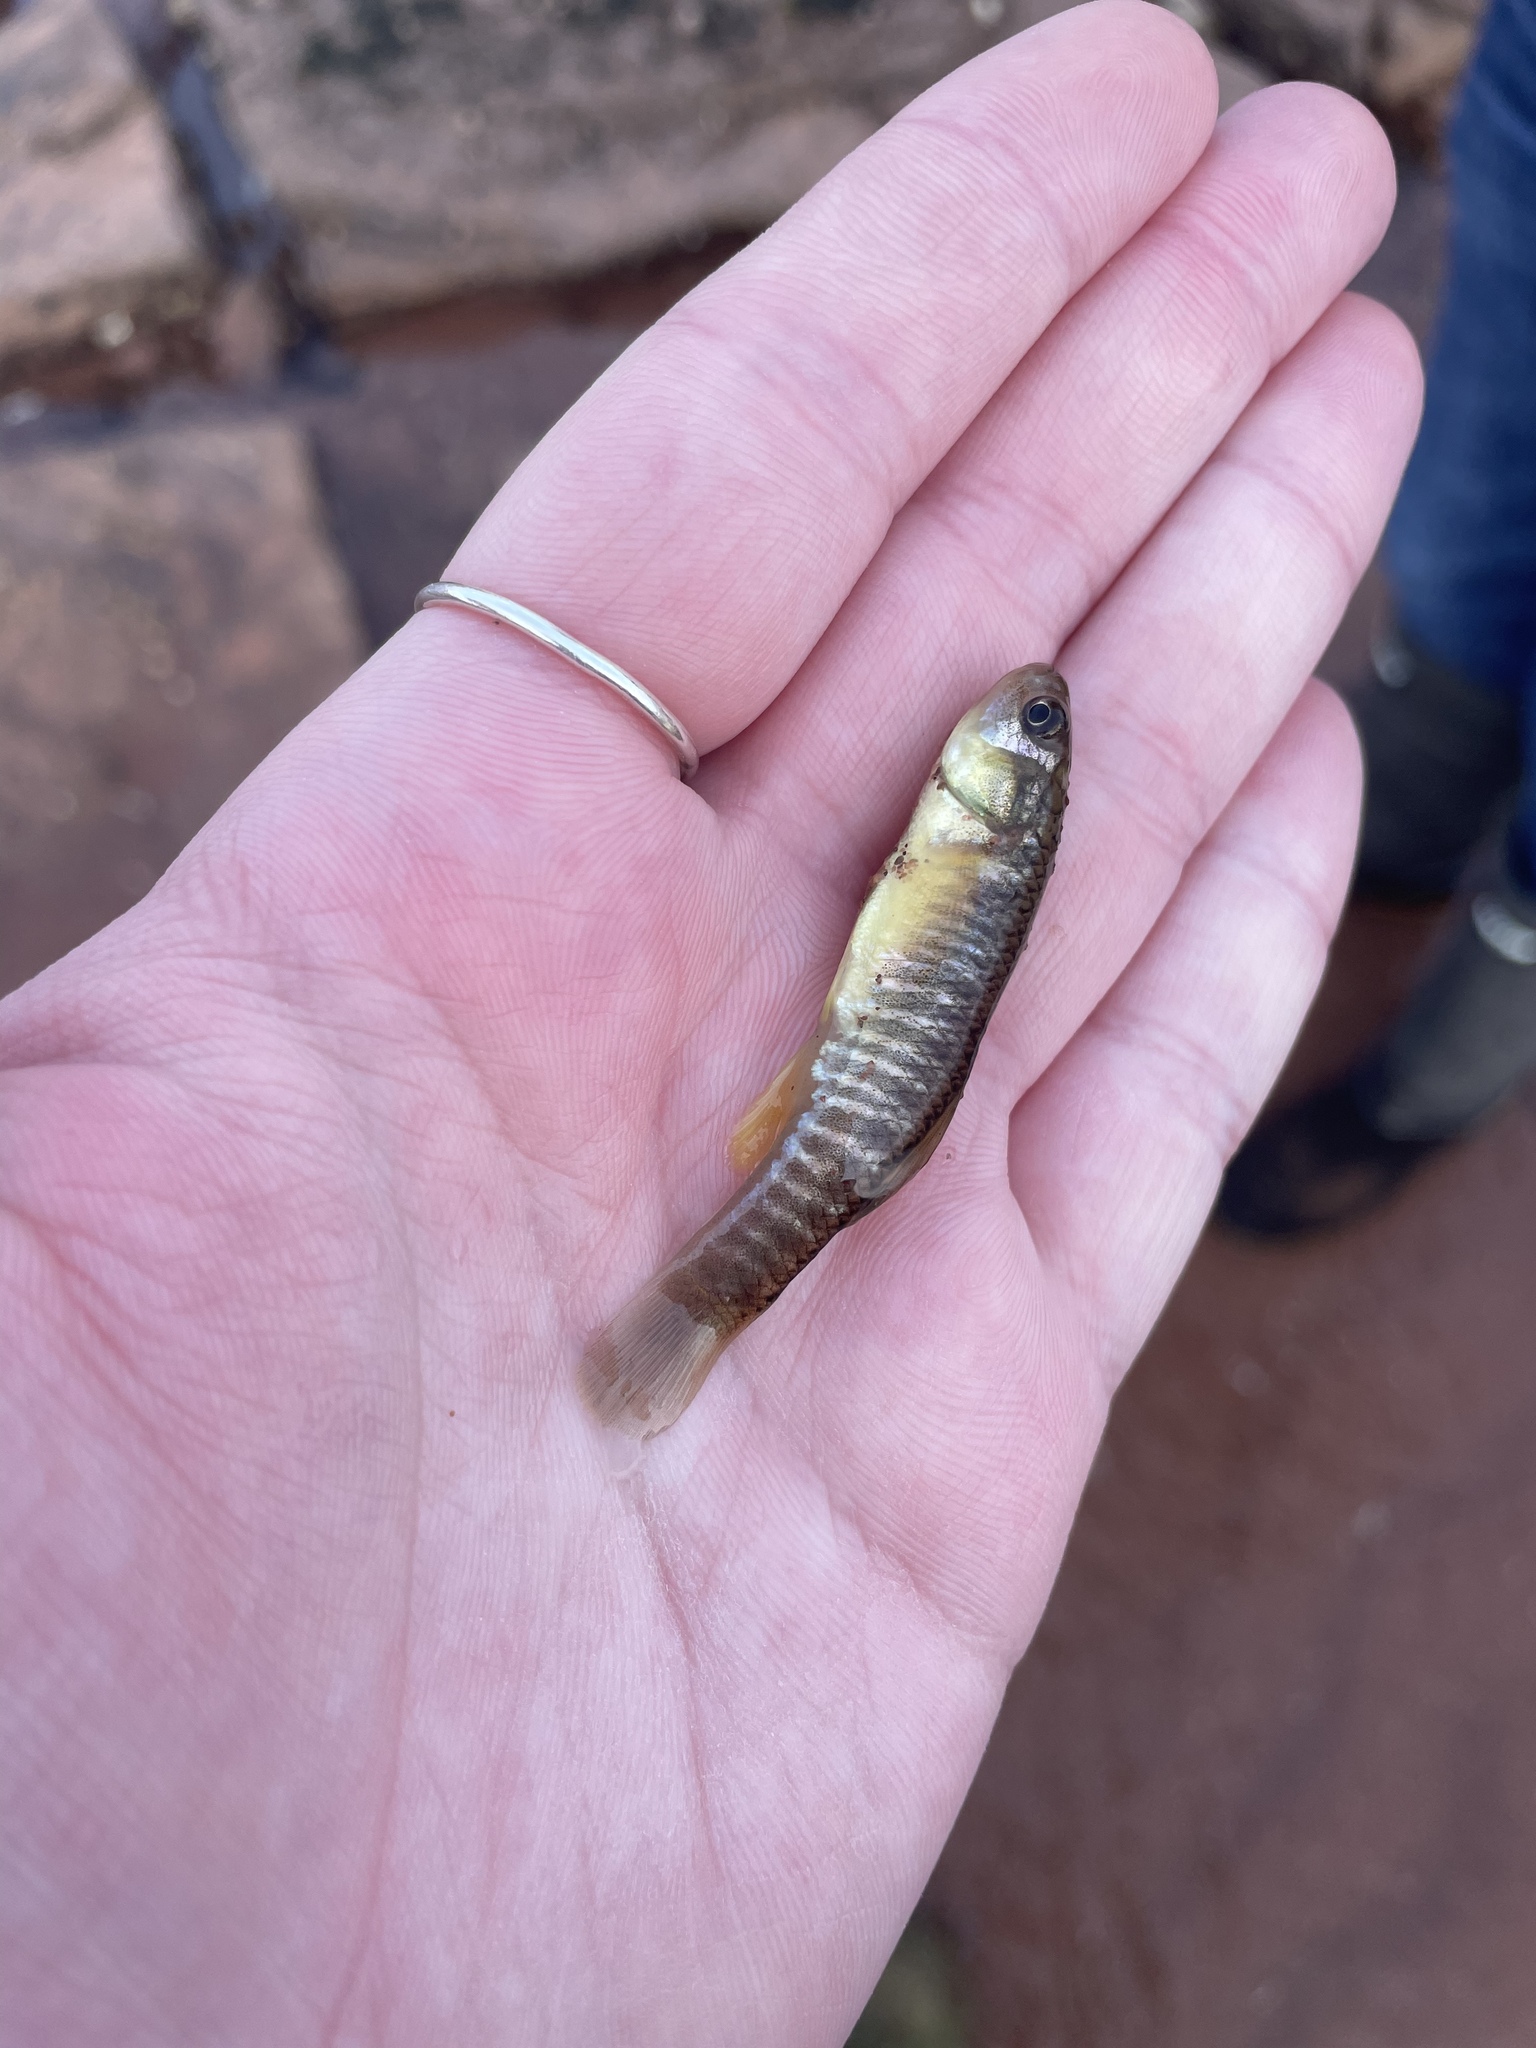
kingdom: Animalia
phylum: Chordata
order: Cyprinodontiformes
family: Fundulidae
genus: Fundulus
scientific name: Fundulus heteroclitus
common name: Mummichog
